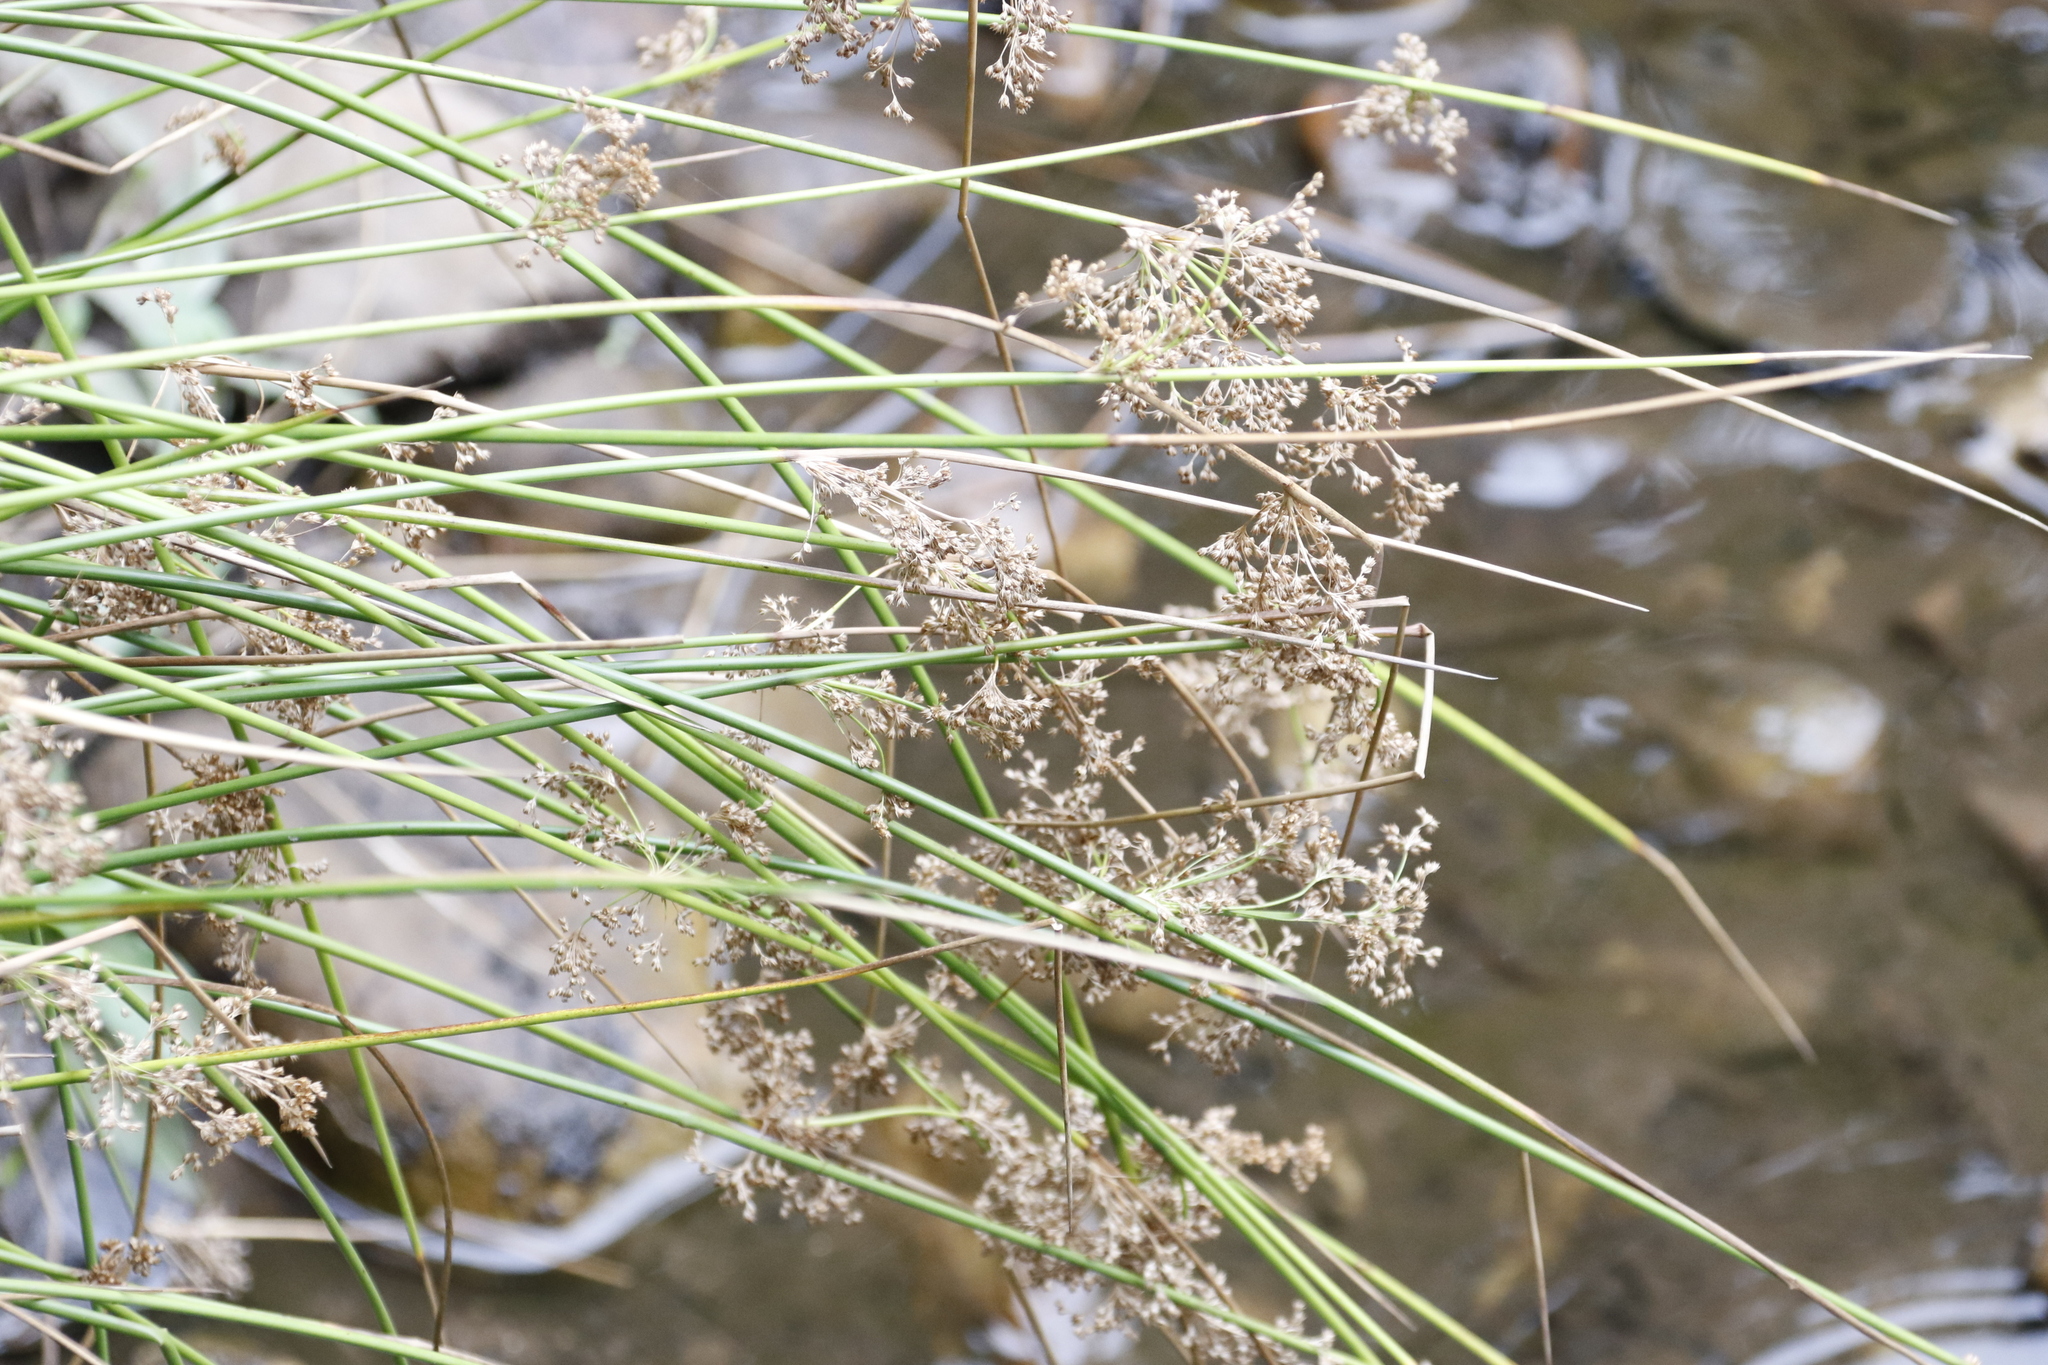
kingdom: Plantae
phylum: Tracheophyta
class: Liliopsida
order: Poales
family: Juncaceae
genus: Juncus
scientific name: Juncus effusus
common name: Soft rush
